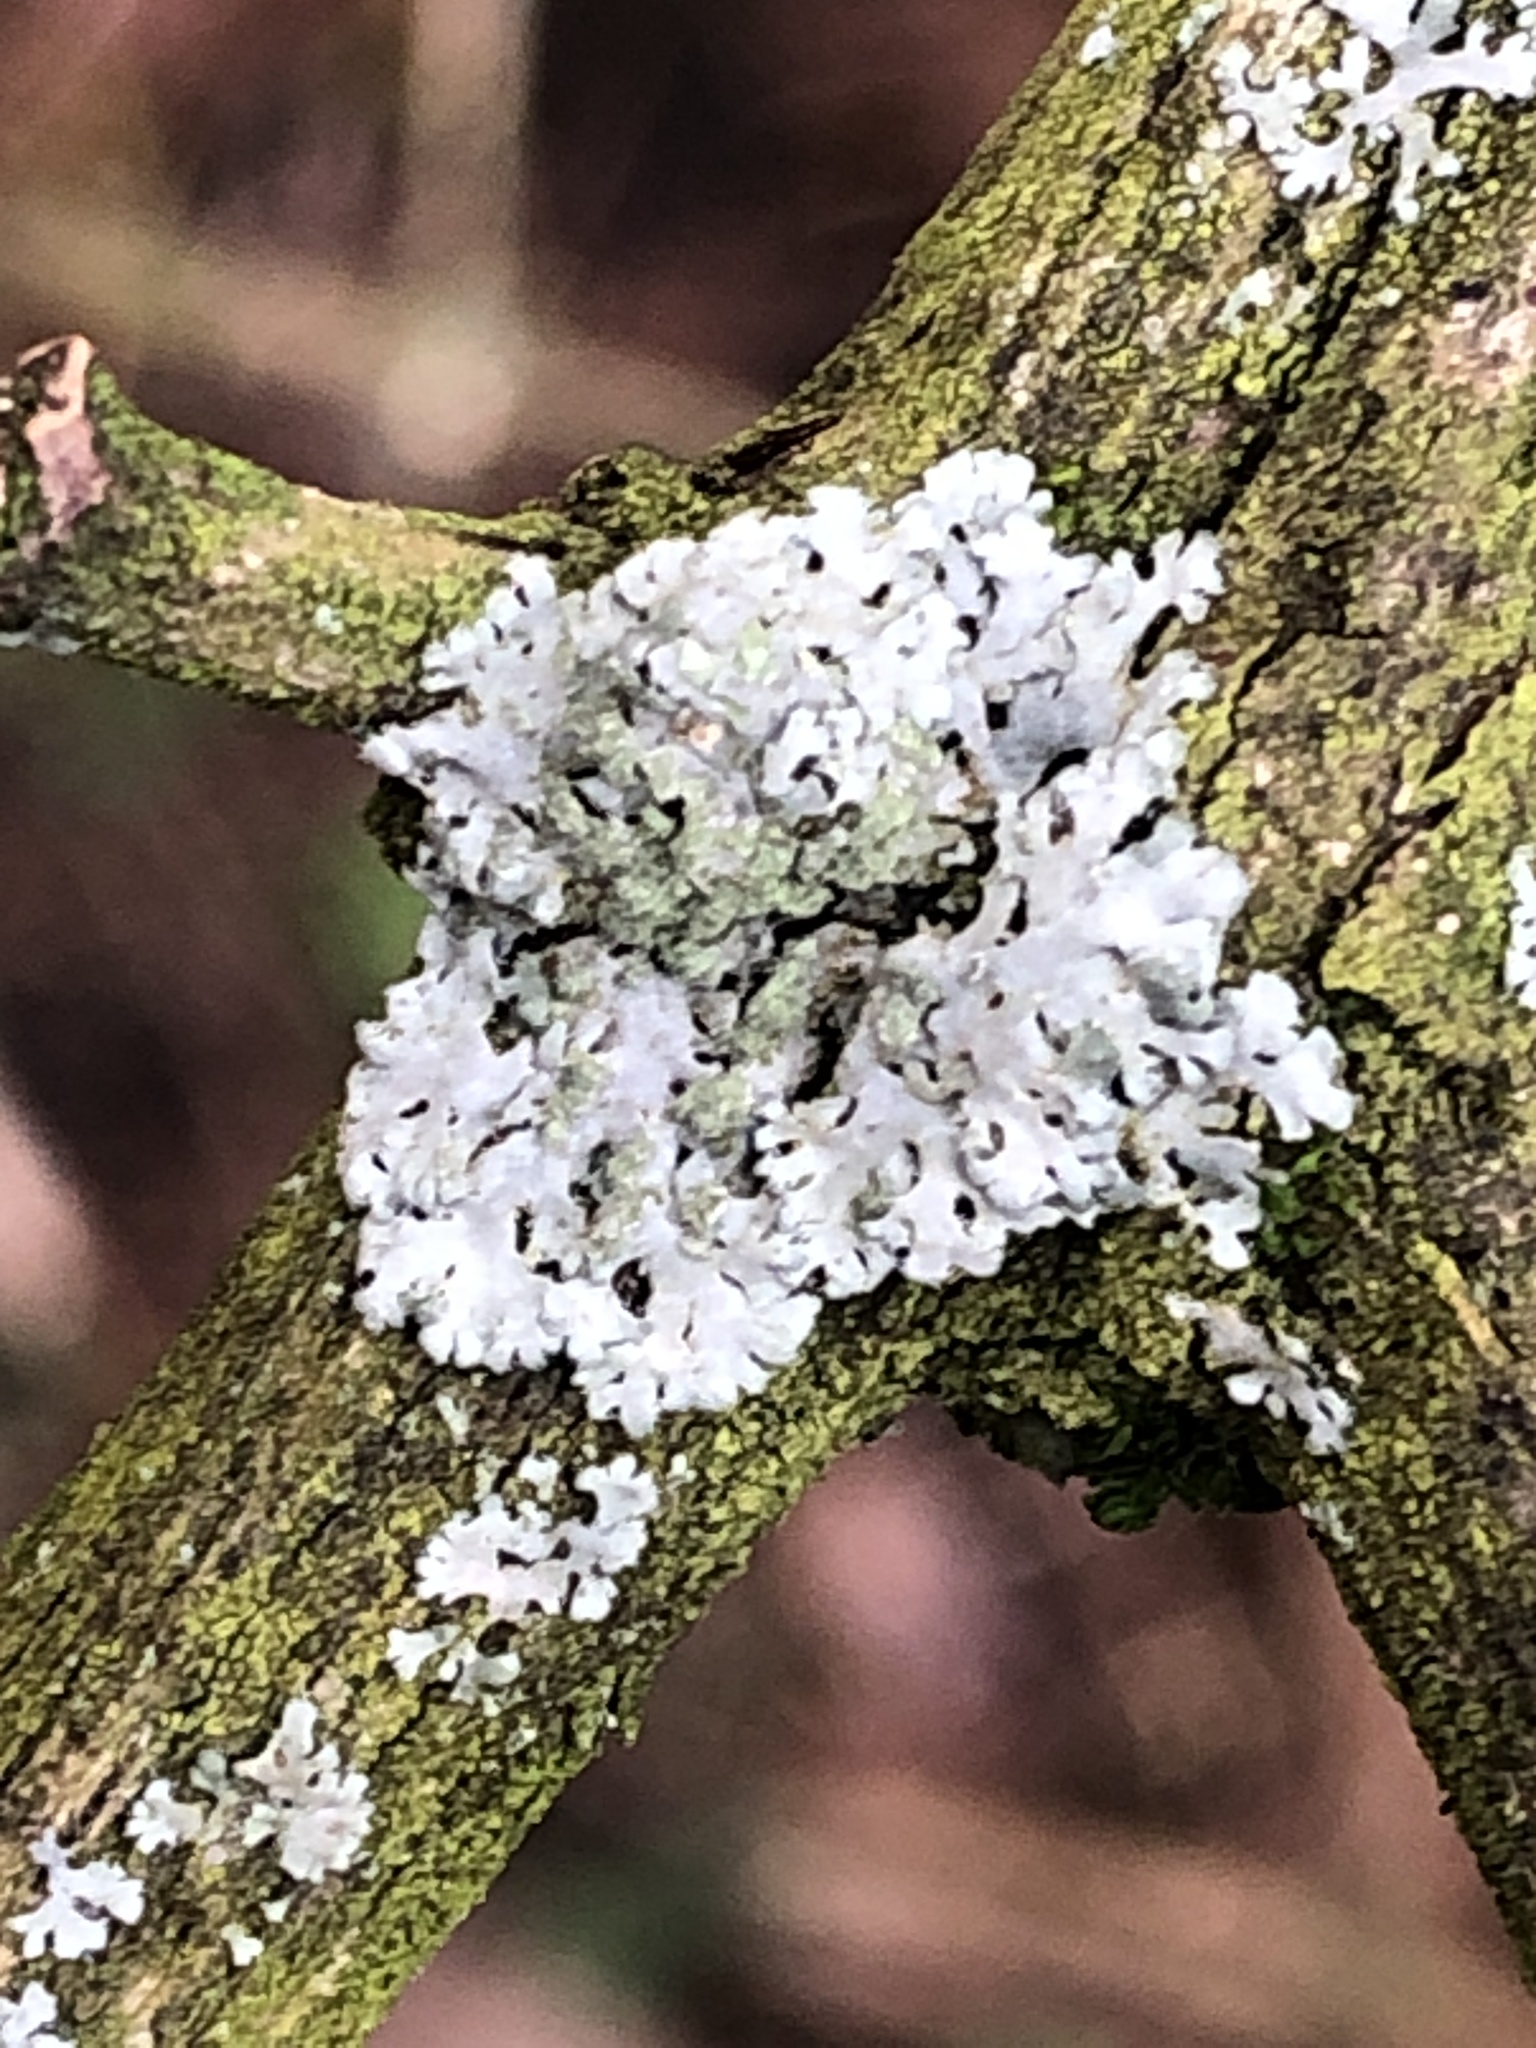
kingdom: Fungi
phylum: Ascomycota
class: Lecanoromycetes
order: Caliciales
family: Physciaceae
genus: Phaeophyscia
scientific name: Phaeophyscia orbicularis
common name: Mealy shadow lichen
